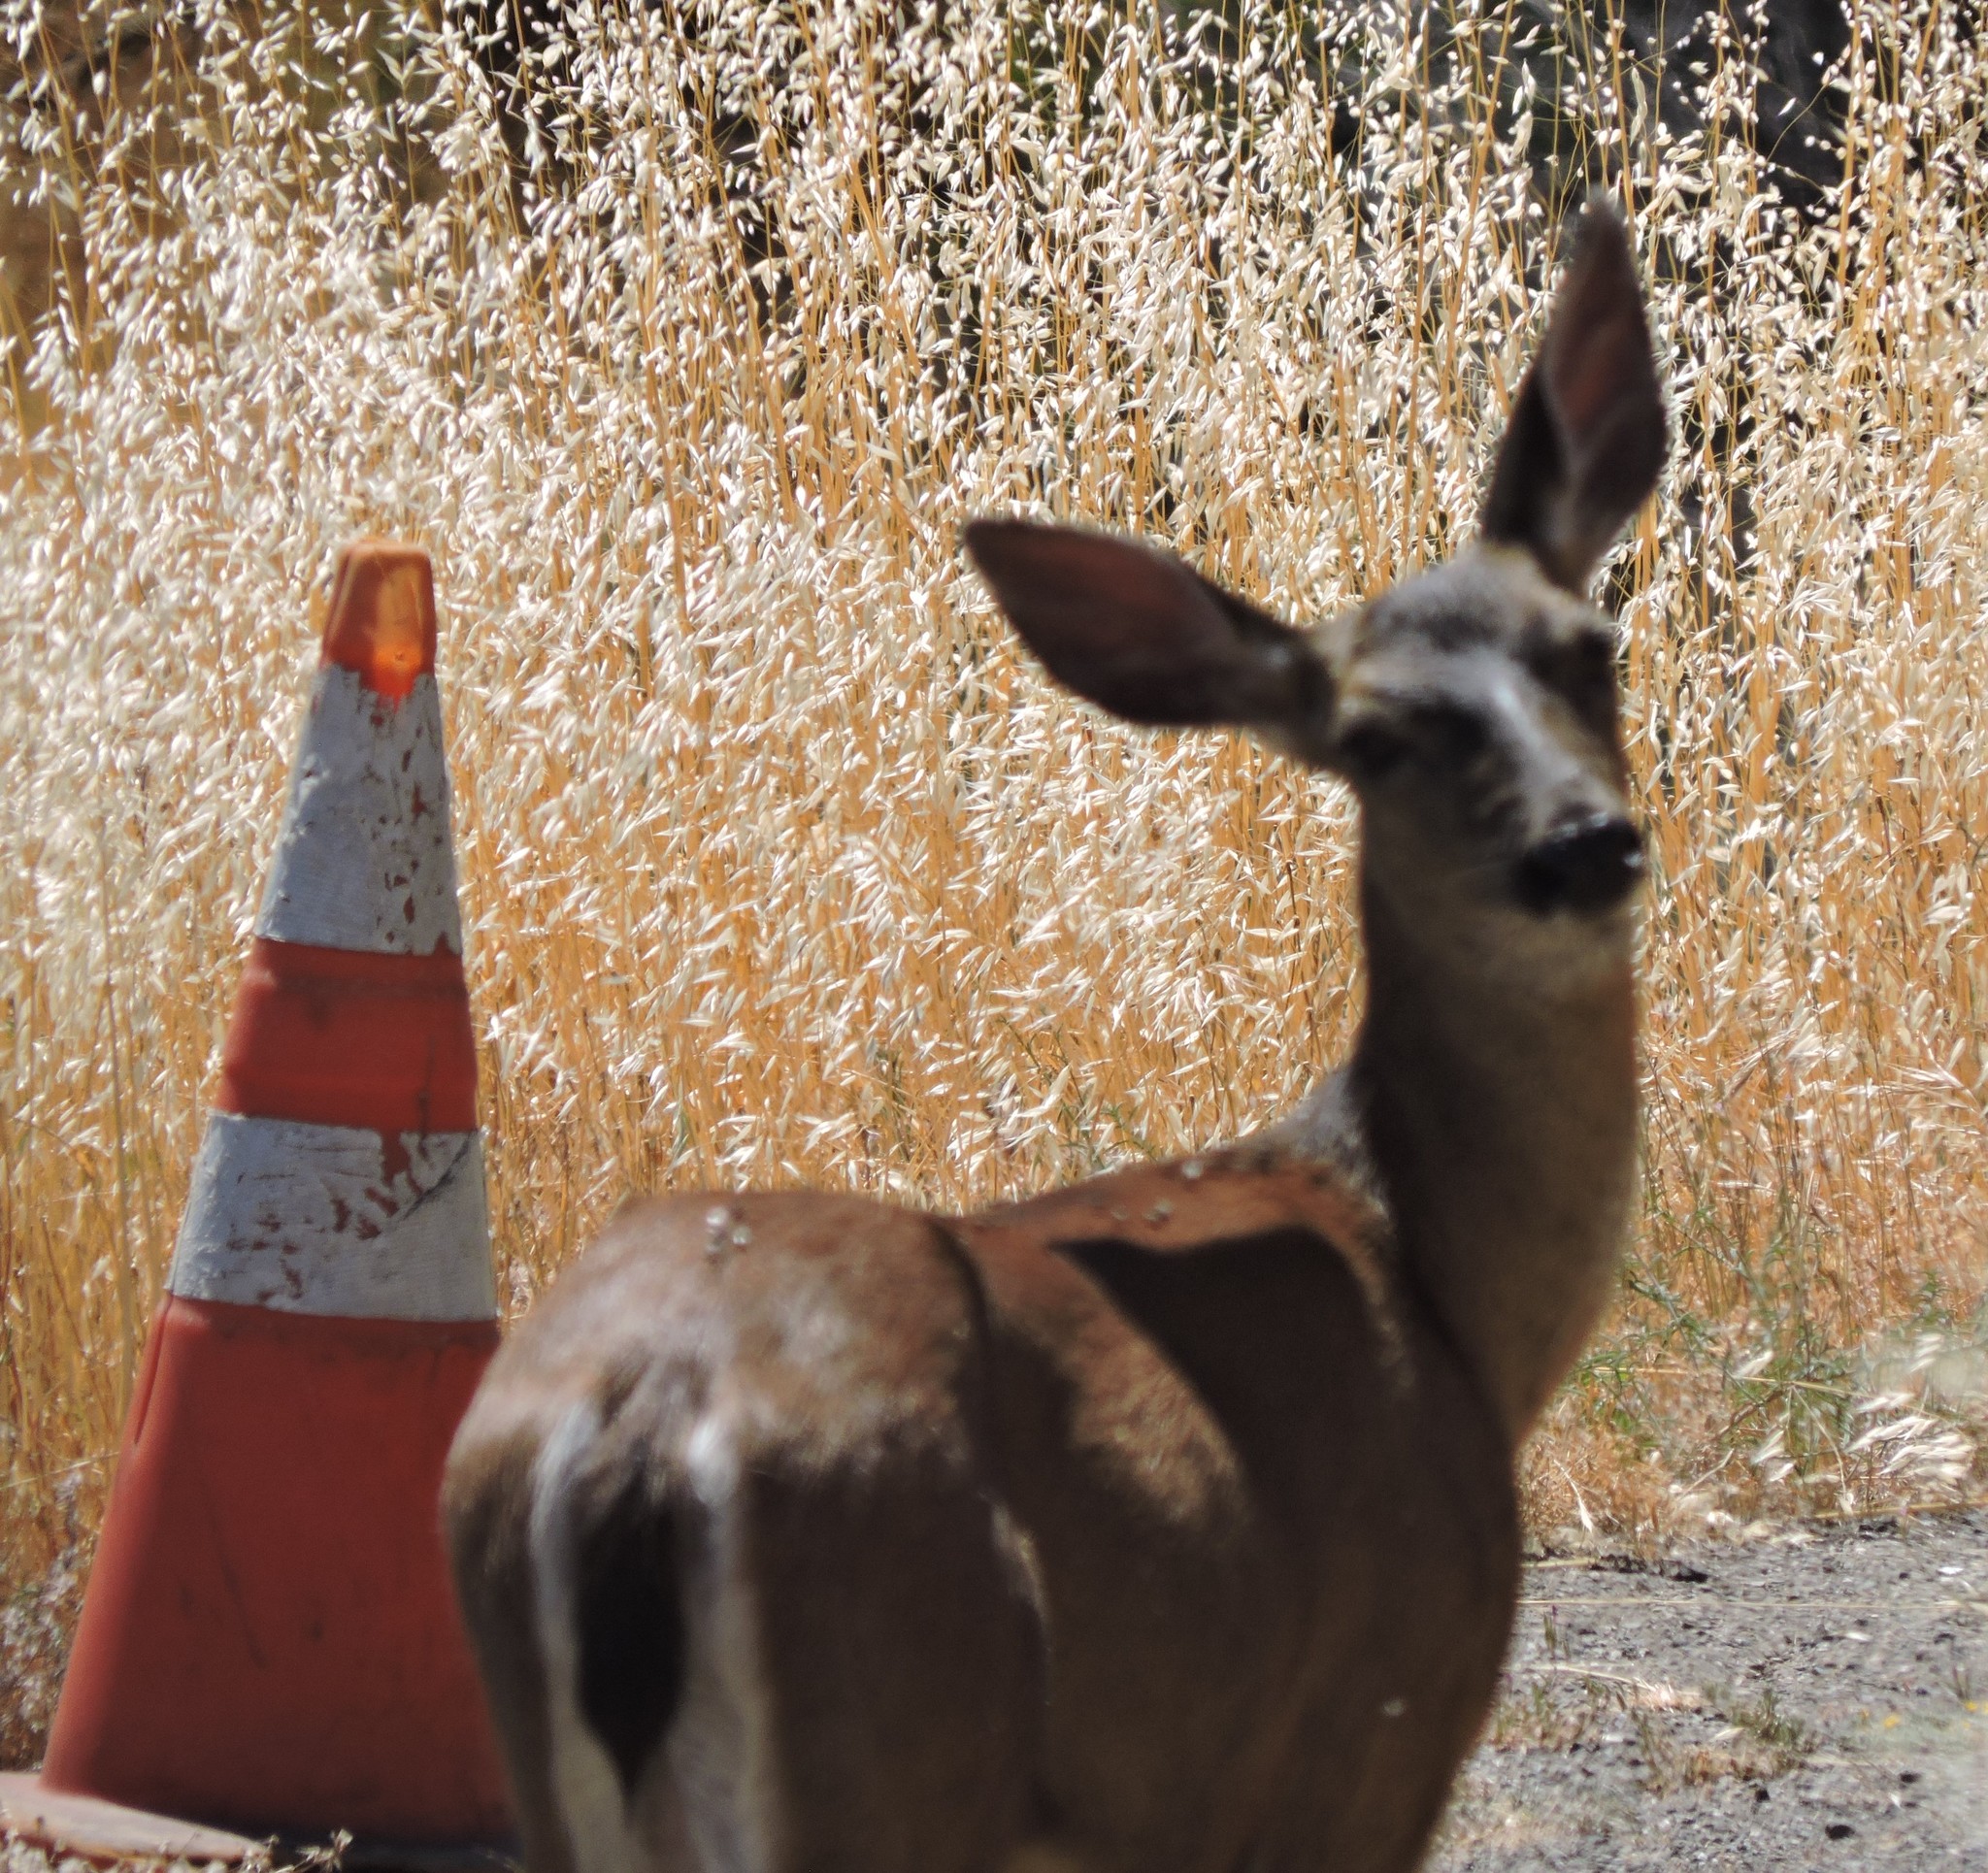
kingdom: Animalia
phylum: Chordata
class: Mammalia
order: Artiodactyla
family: Cervidae
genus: Odocoileus
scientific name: Odocoileus hemionus
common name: Mule deer
